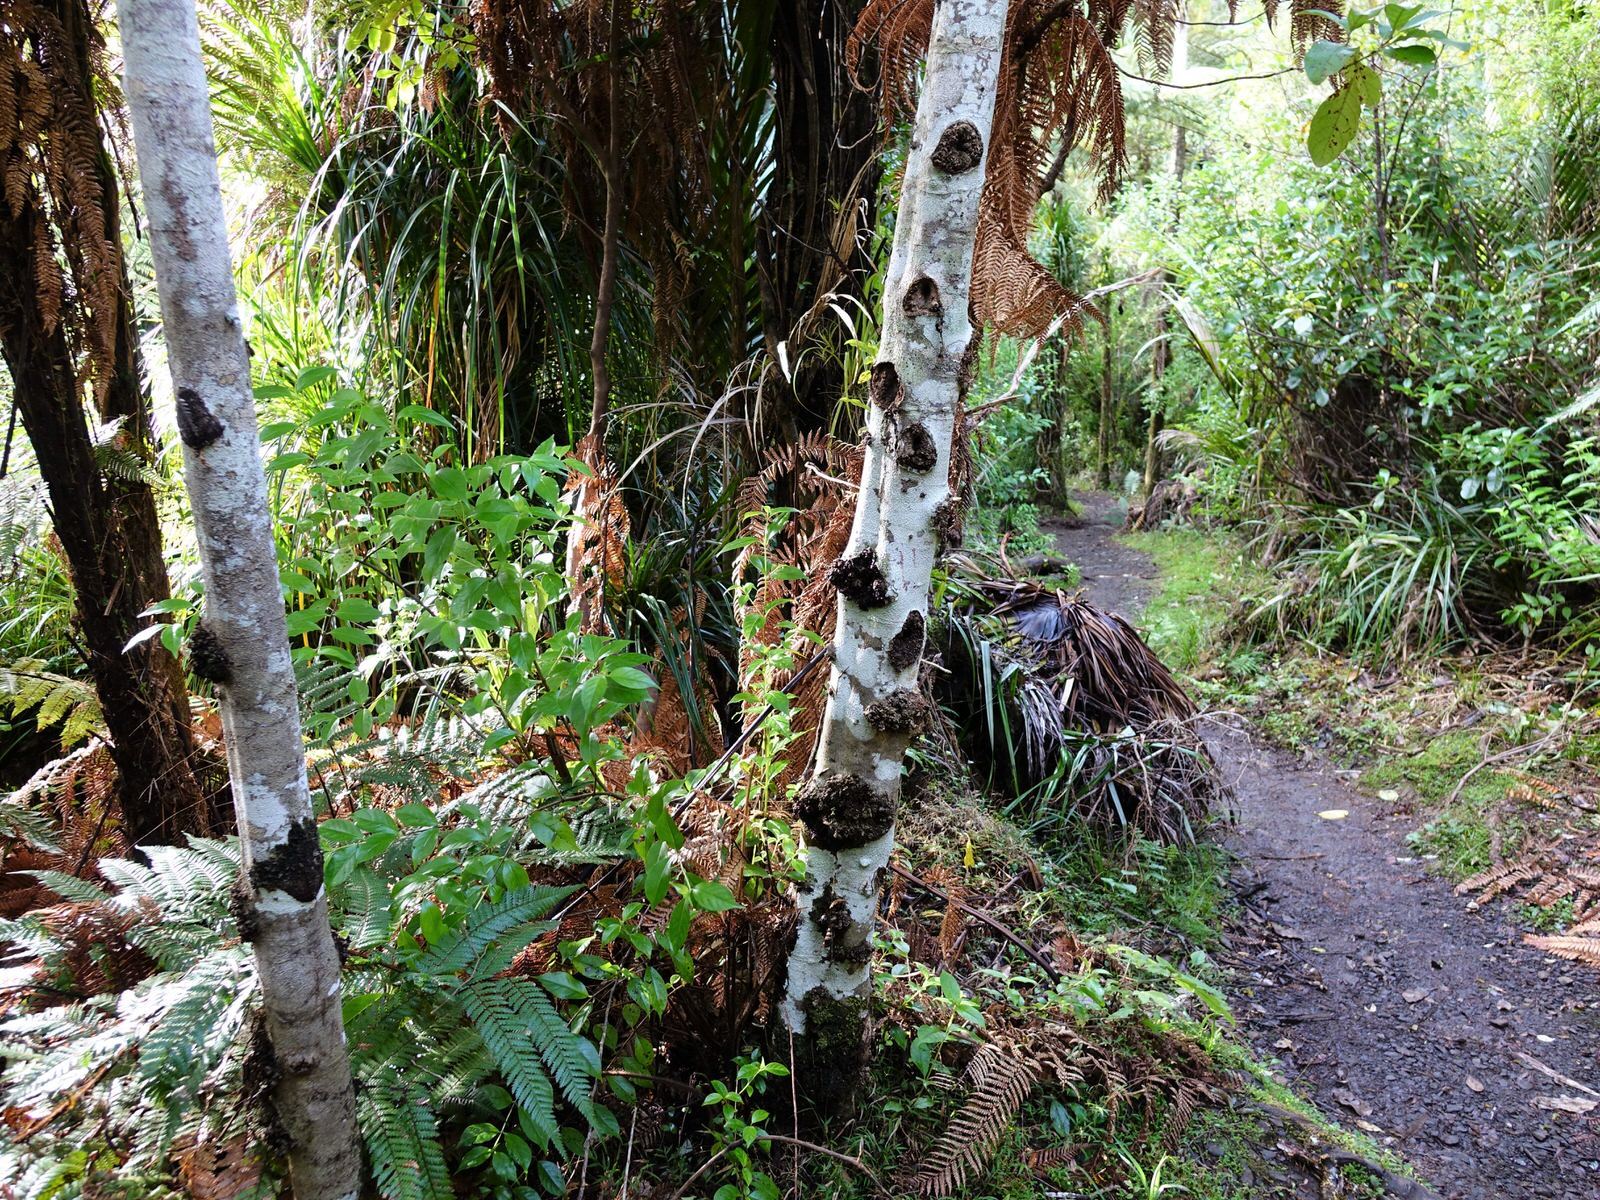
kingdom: Plantae
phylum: Tracheophyta
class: Magnoliopsida
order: Asterales
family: Rousseaceae
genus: Carpodetus
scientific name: Carpodetus serratus
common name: White mapau
